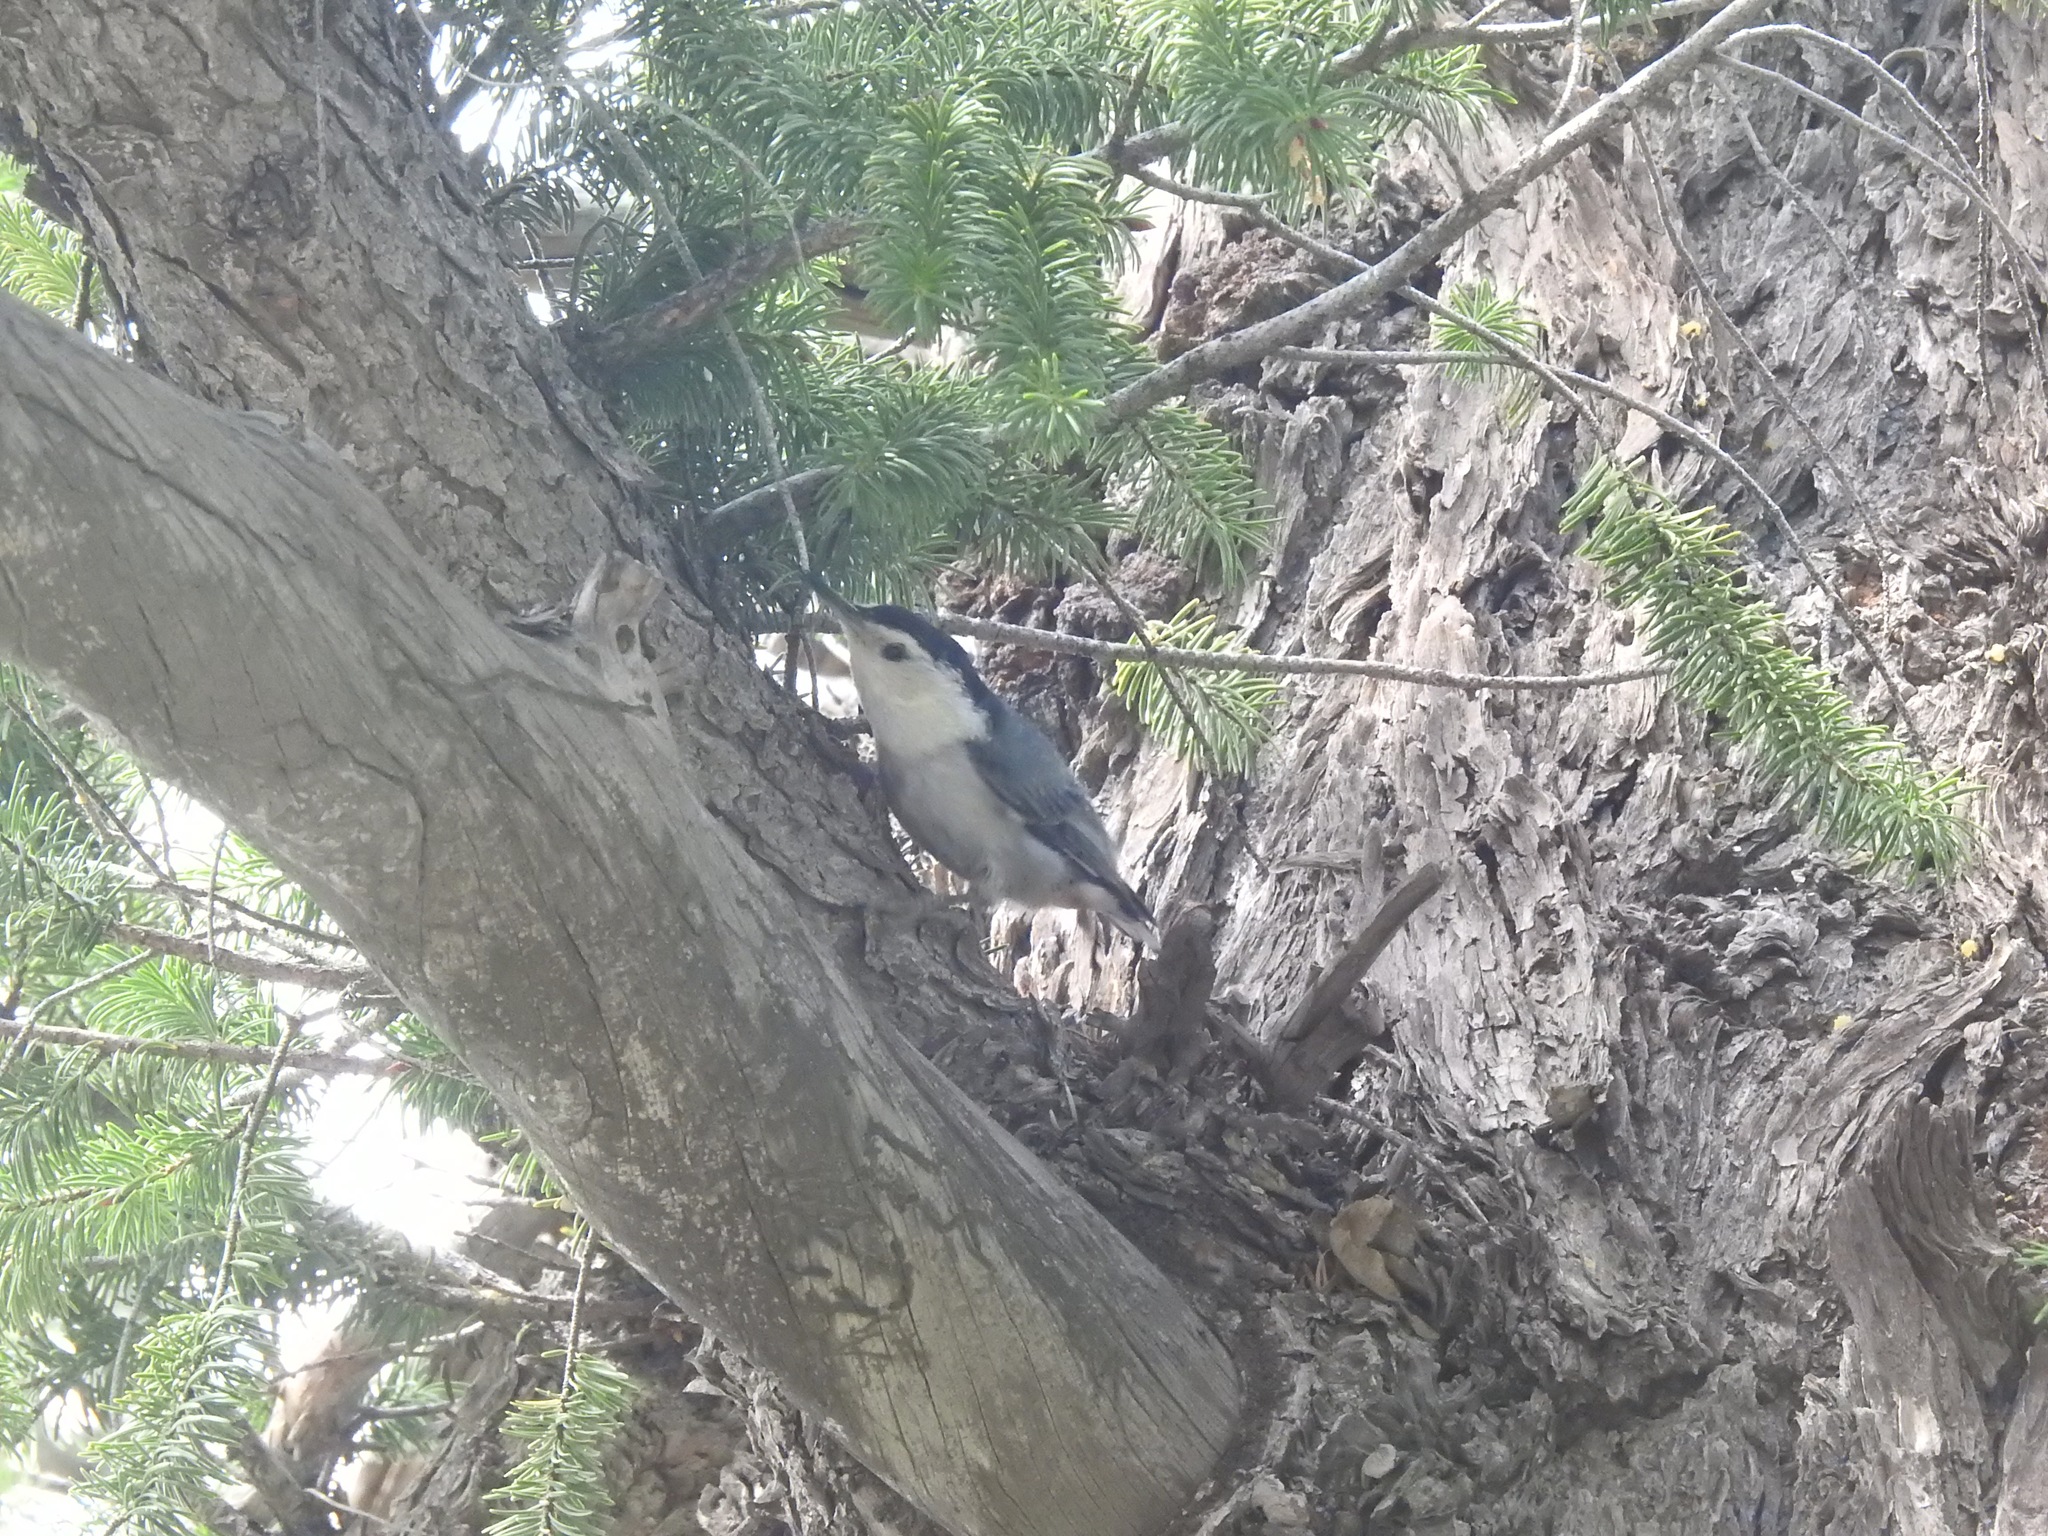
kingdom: Animalia
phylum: Chordata
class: Aves
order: Passeriformes
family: Sittidae
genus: Sitta
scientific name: Sitta carolinensis
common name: White-breasted nuthatch
